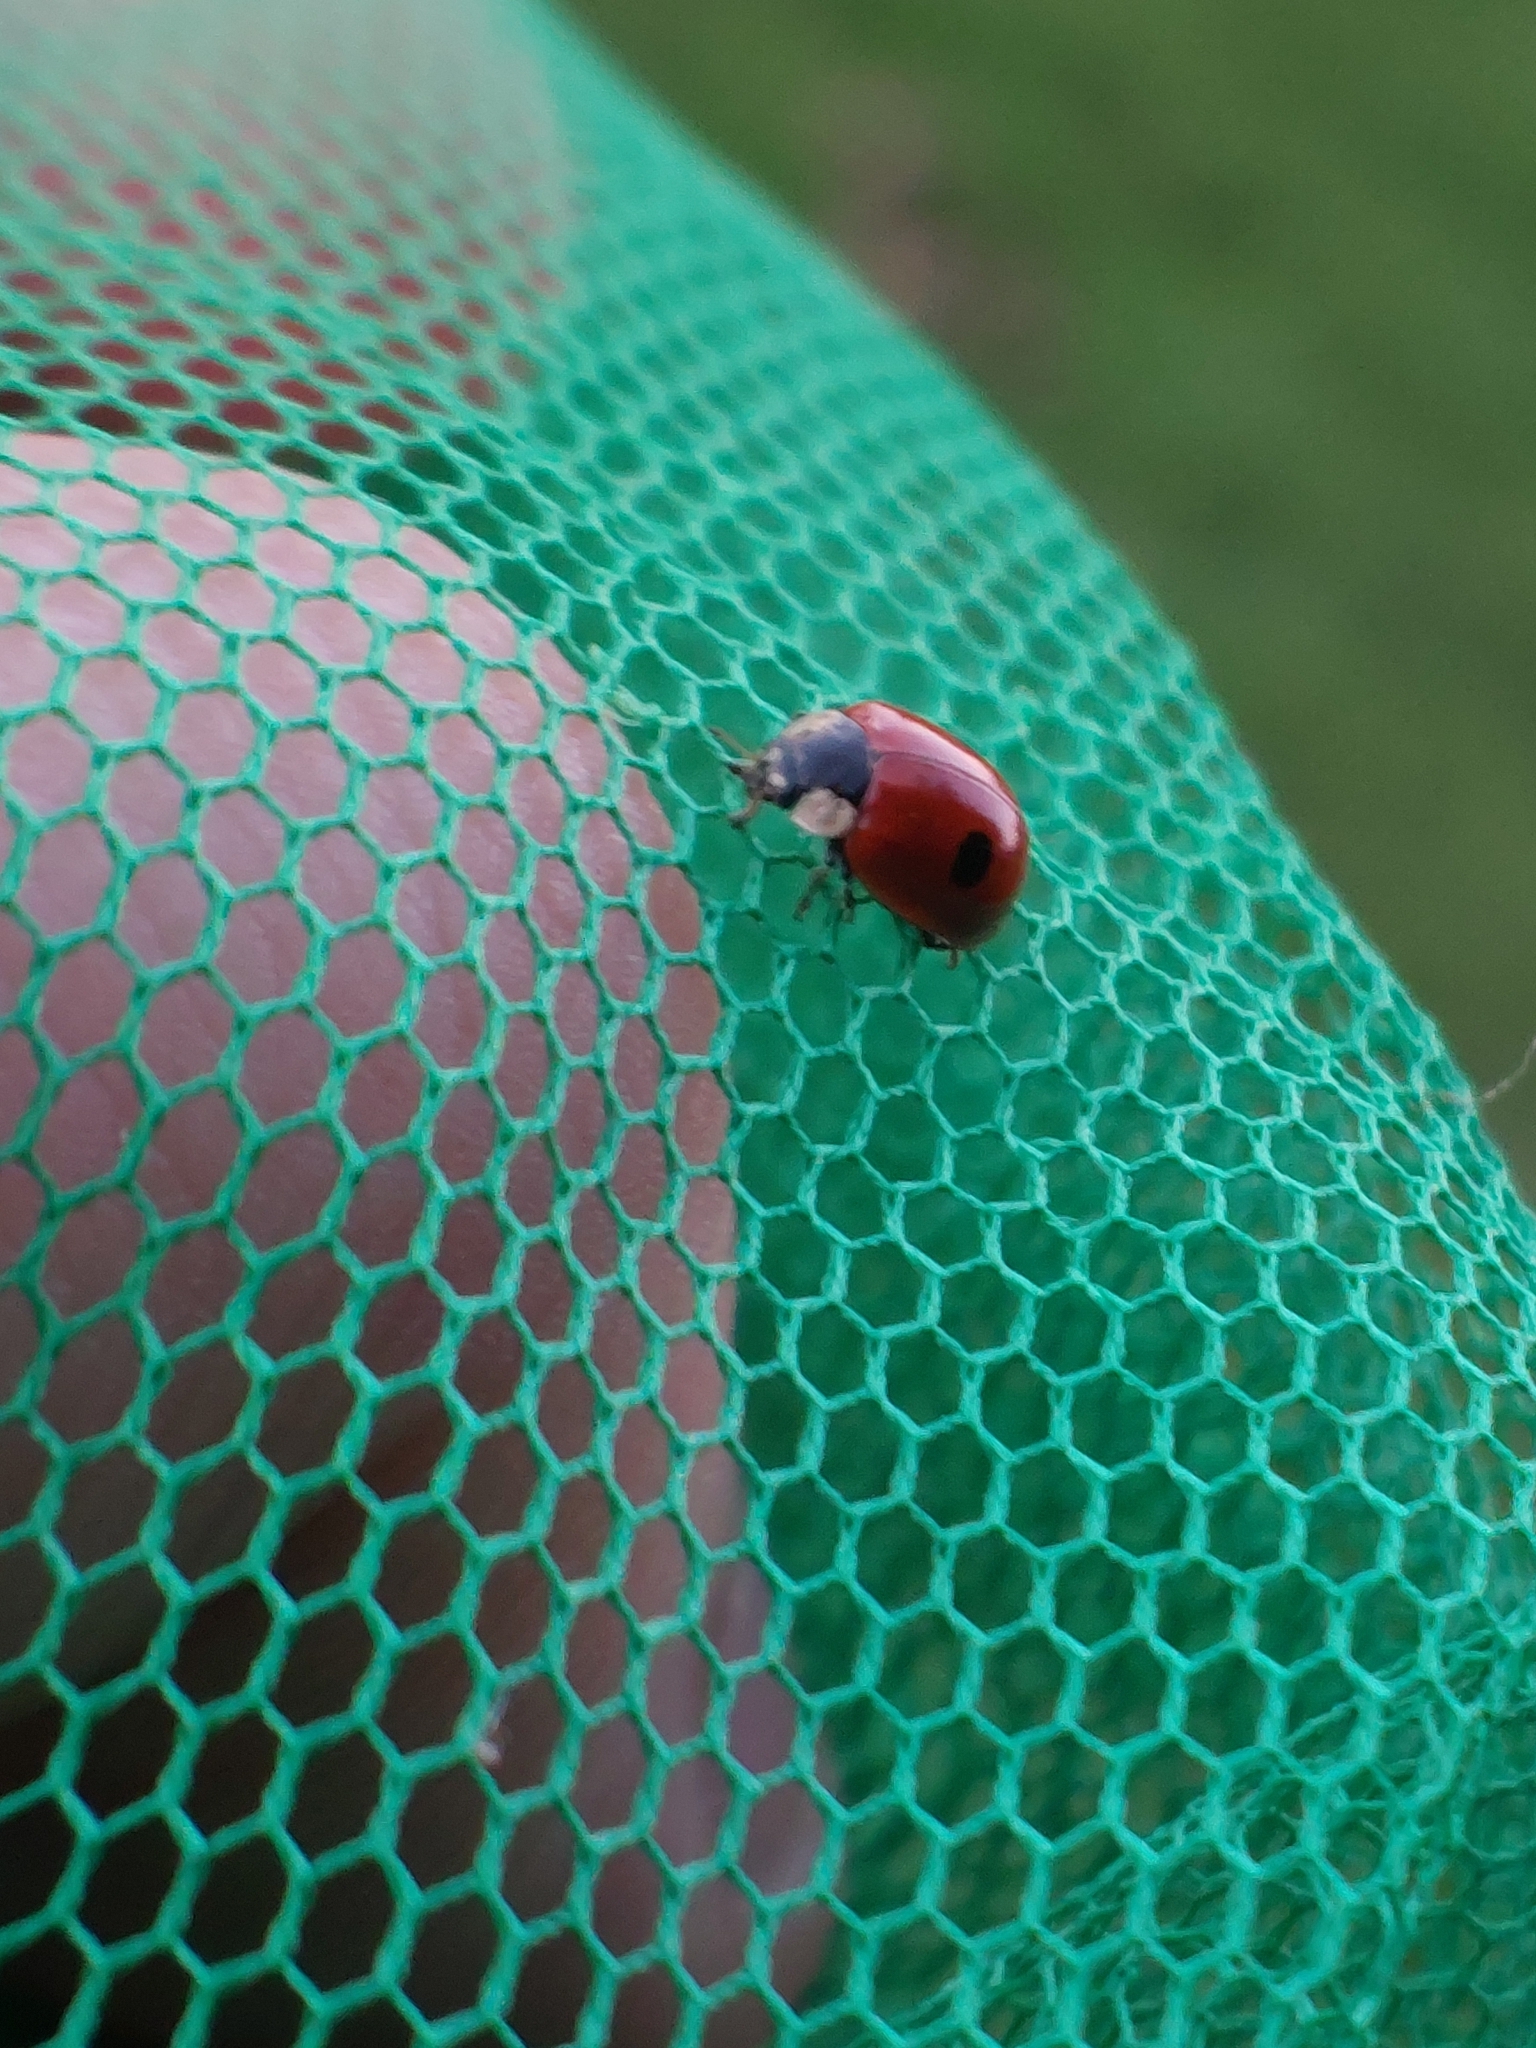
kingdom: Animalia
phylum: Arthropoda
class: Insecta
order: Coleoptera
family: Coccinellidae
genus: Adalia
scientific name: Adalia bipunctata
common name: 2-spot ladybird
